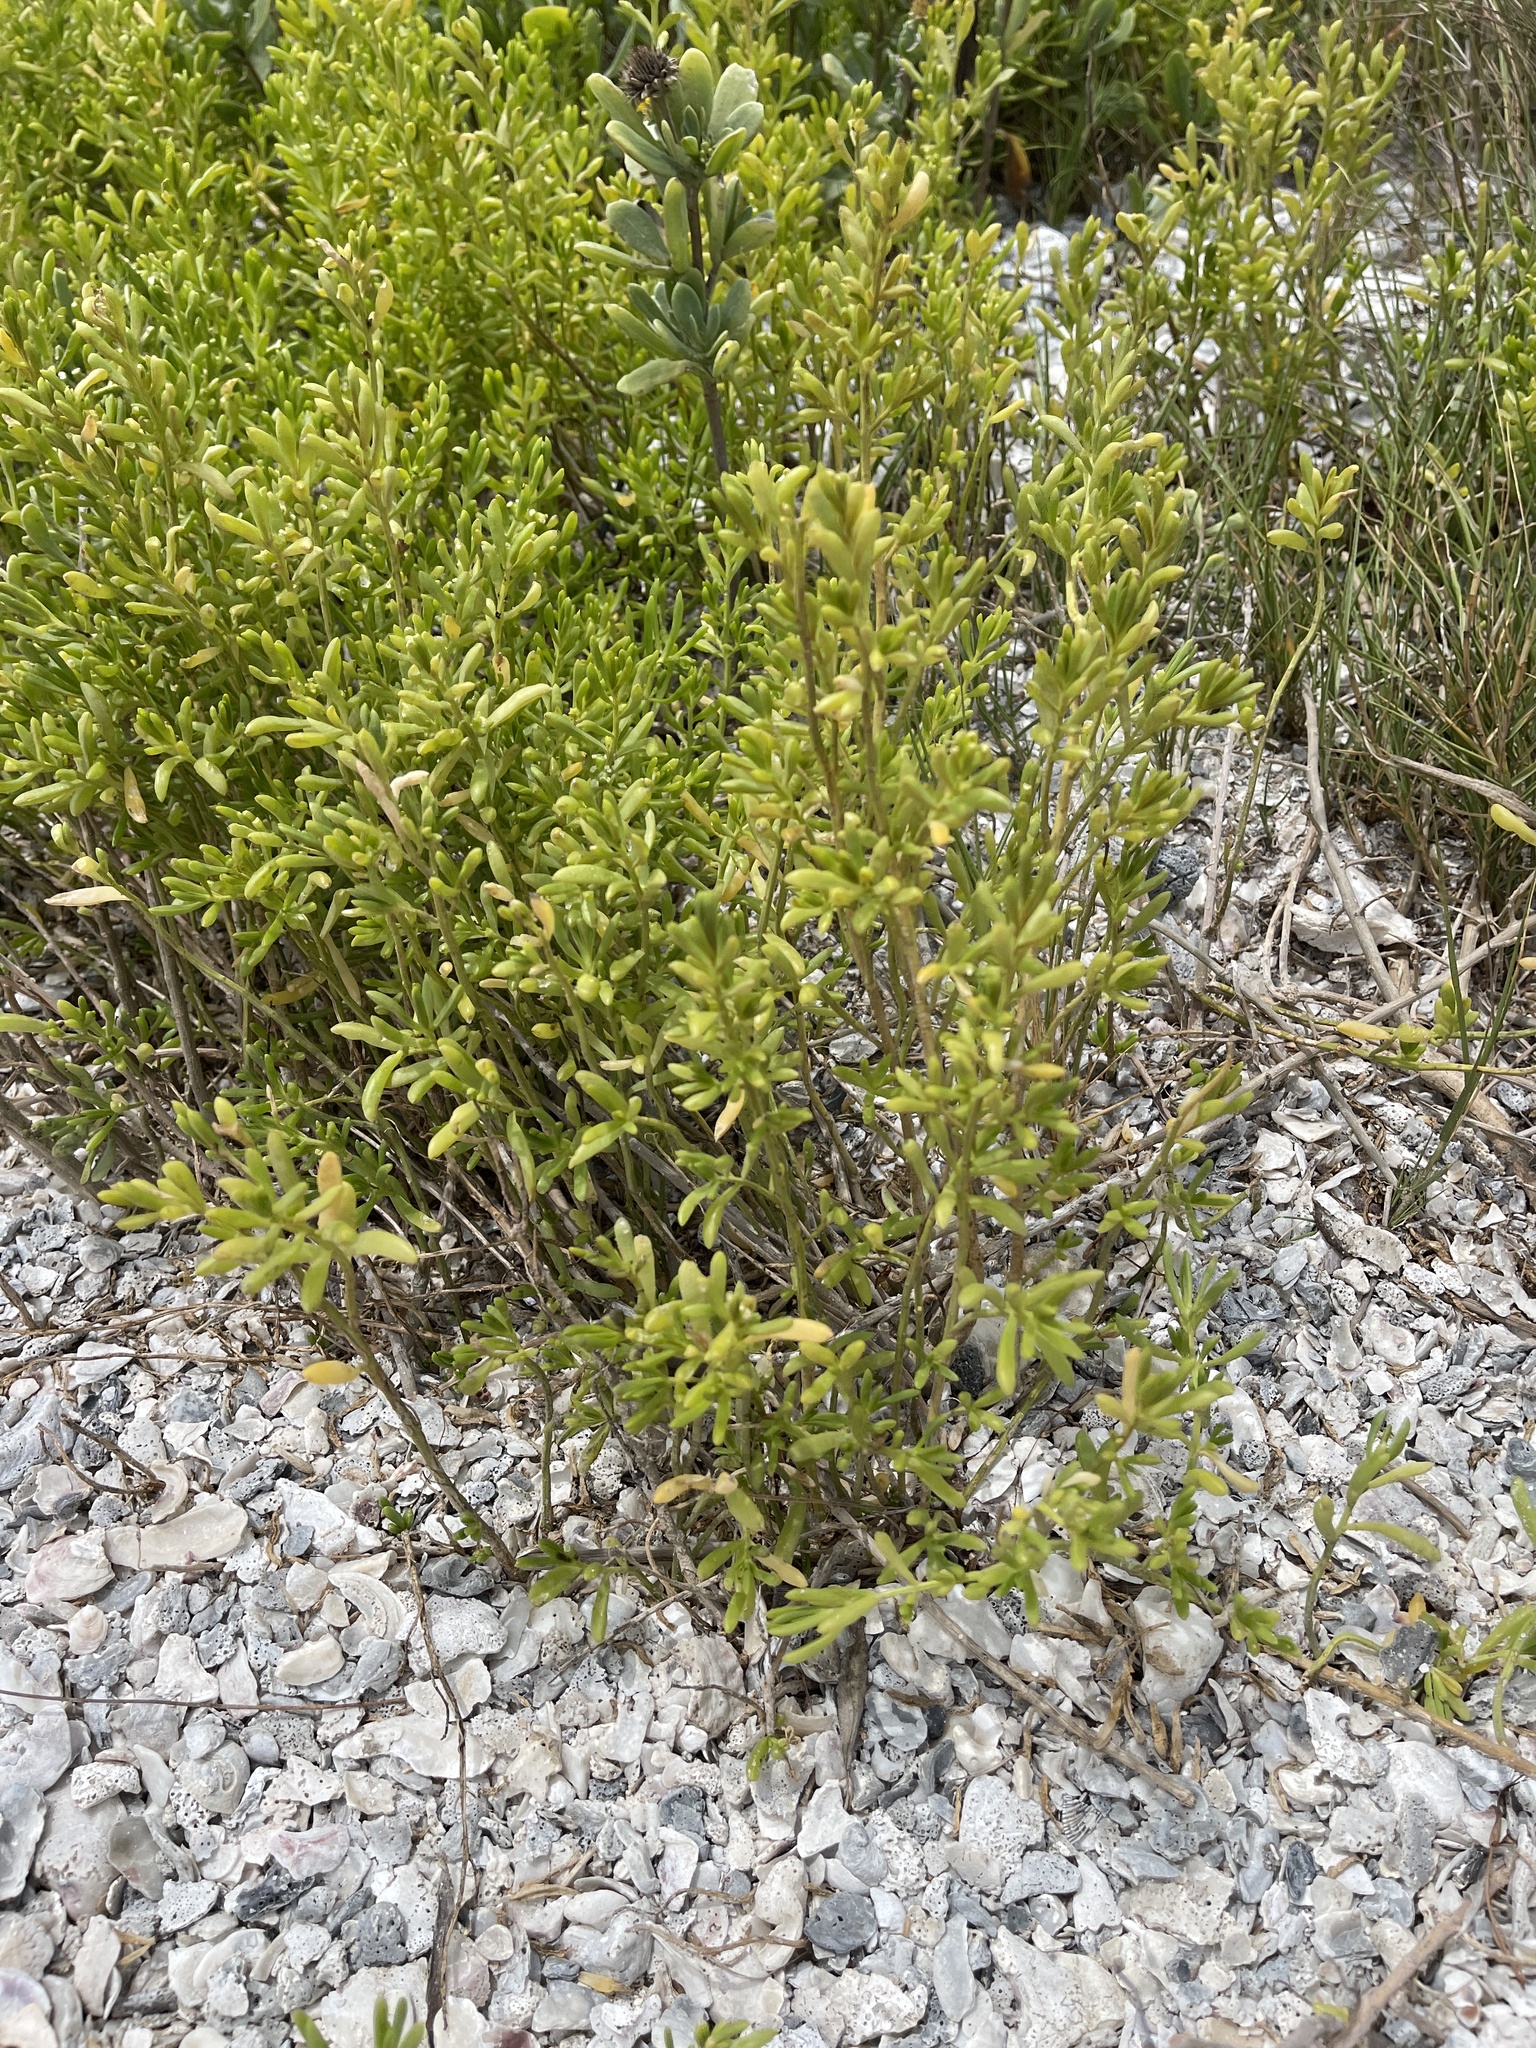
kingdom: Plantae
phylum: Tracheophyta
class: Magnoliopsida
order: Brassicales
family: Bataceae
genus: Batis
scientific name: Batis maritima
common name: Turtleweed
